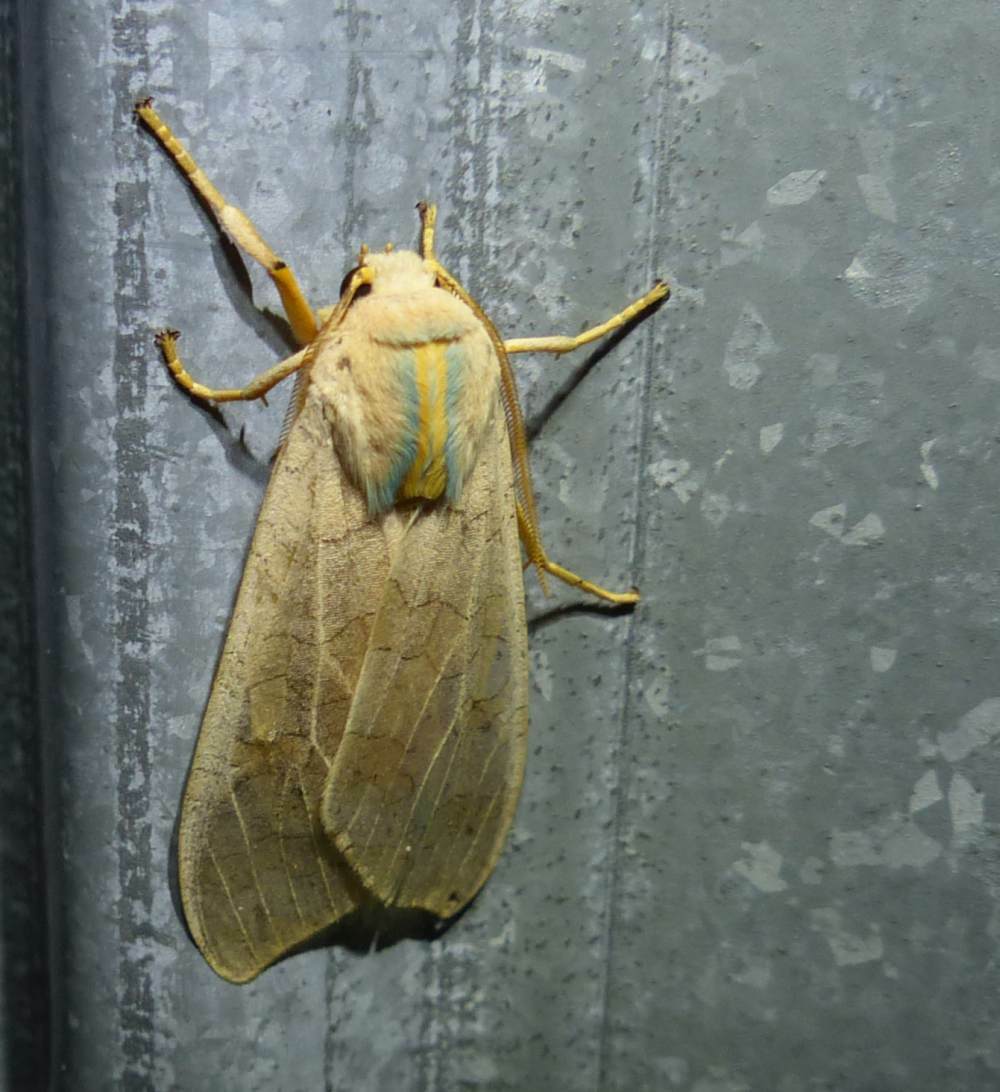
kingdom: Animalia
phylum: Arthropoda
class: Insecta
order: Lepidoptera
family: Erebidae
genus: Halysidota
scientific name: Halysidota tessellaris
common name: Banded tussock moth
